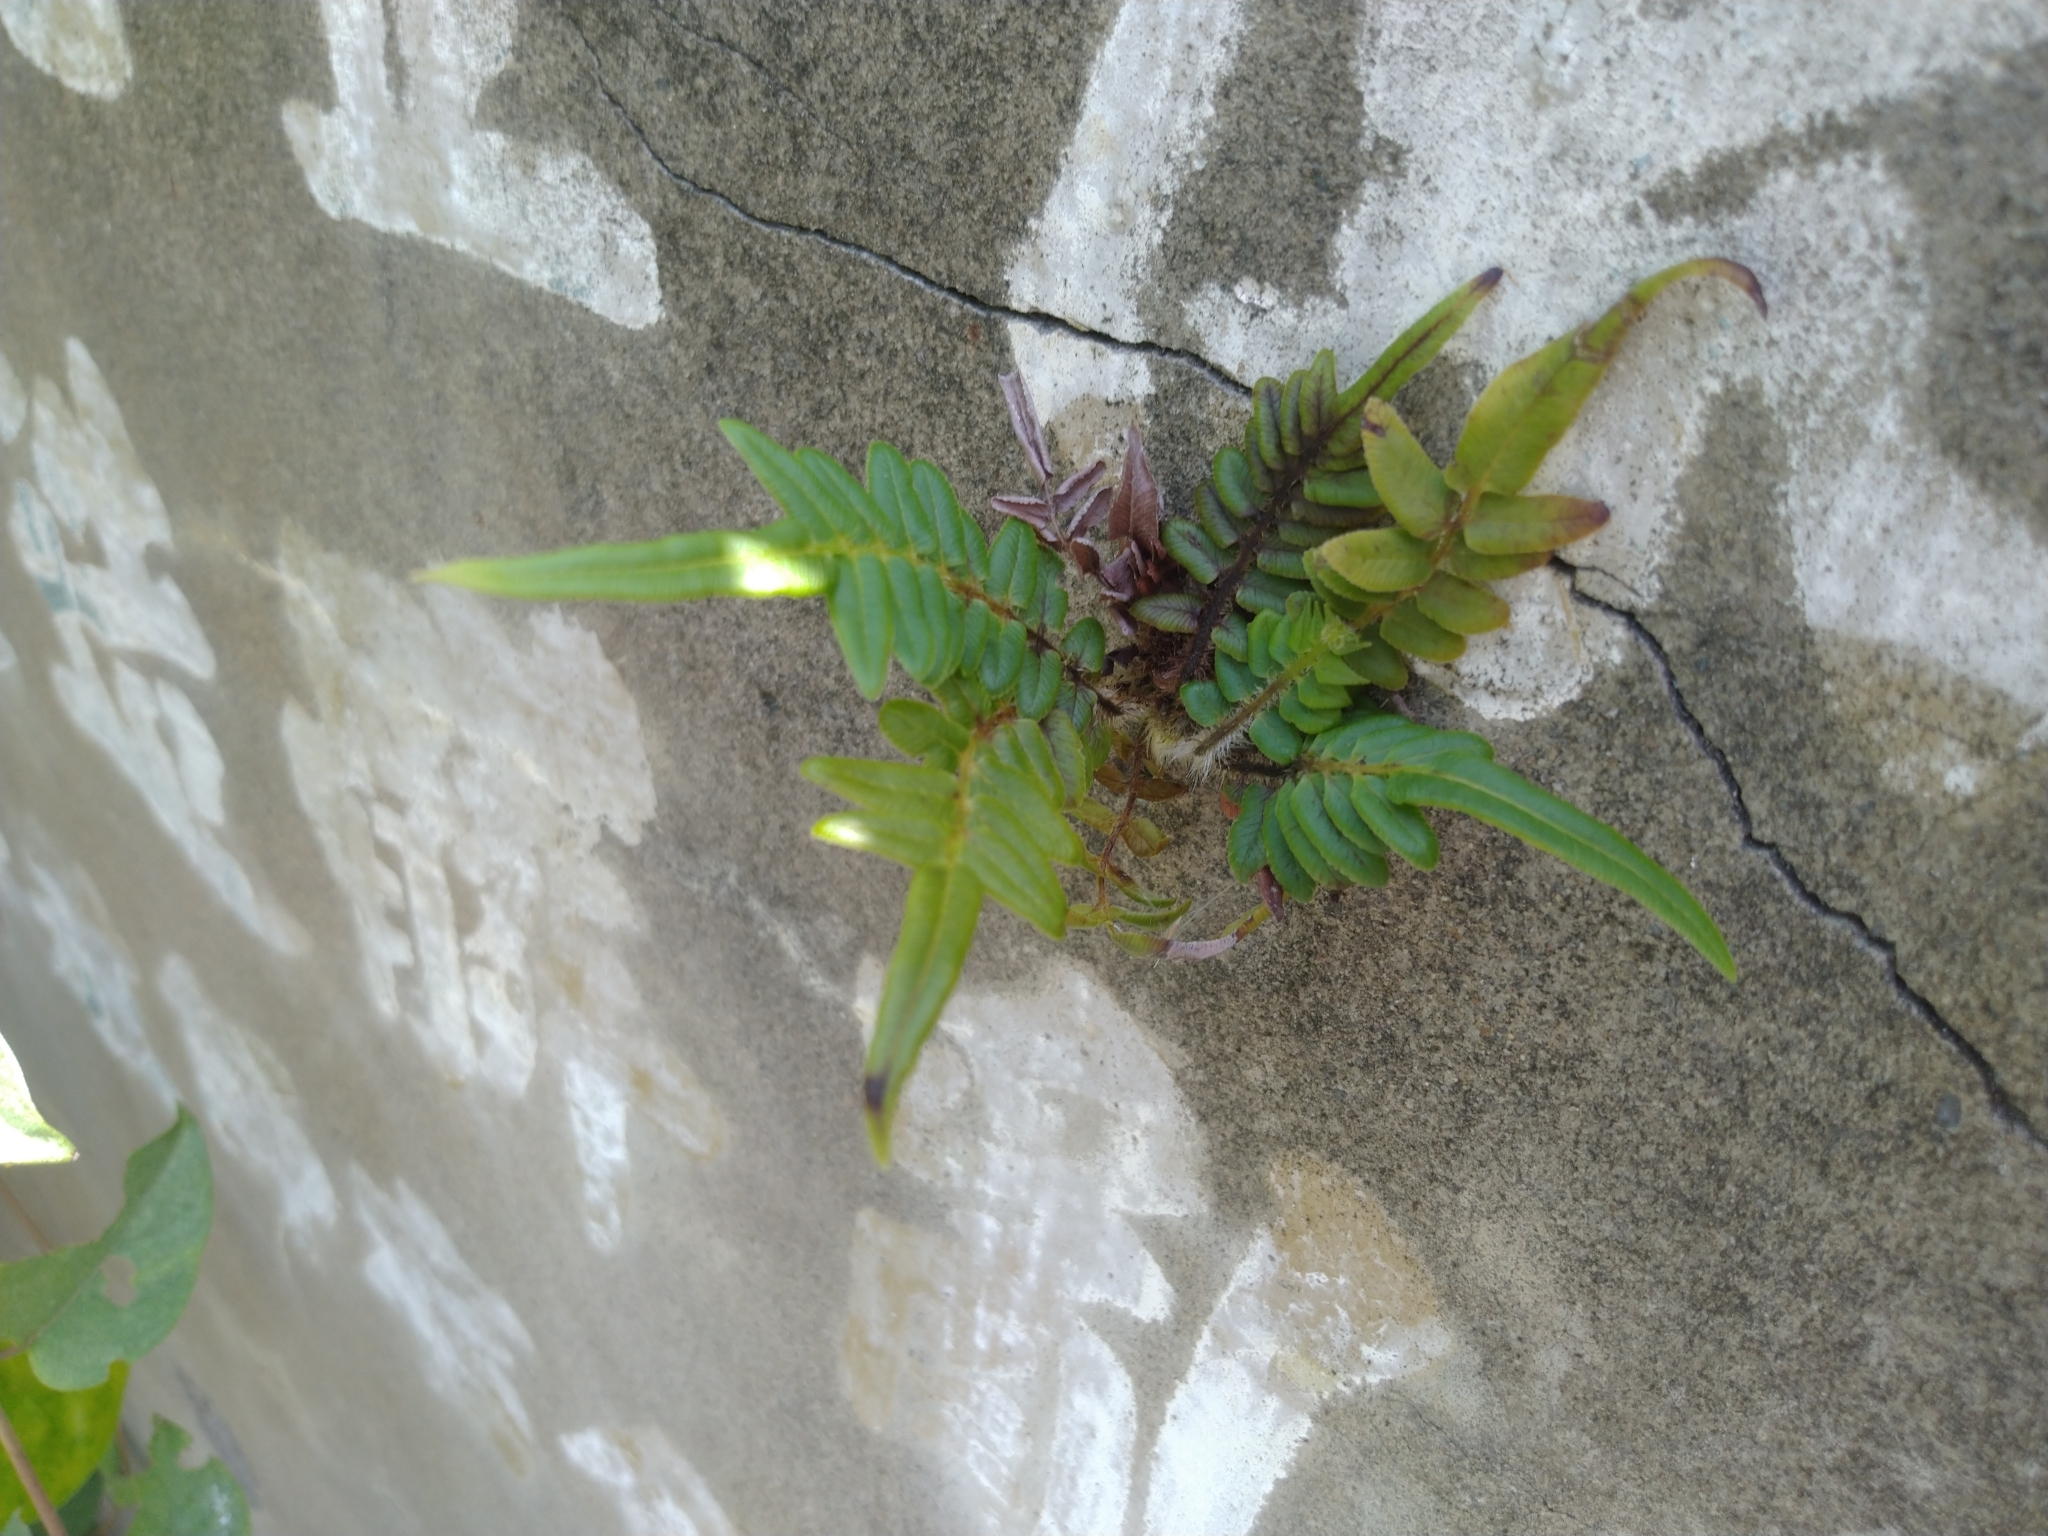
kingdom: Plantae
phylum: Tracheophyta
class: Polypodiopsida
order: Polypodiales
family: Pteridaceae
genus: Pteris
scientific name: Pteris vittata
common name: Ladder brake
